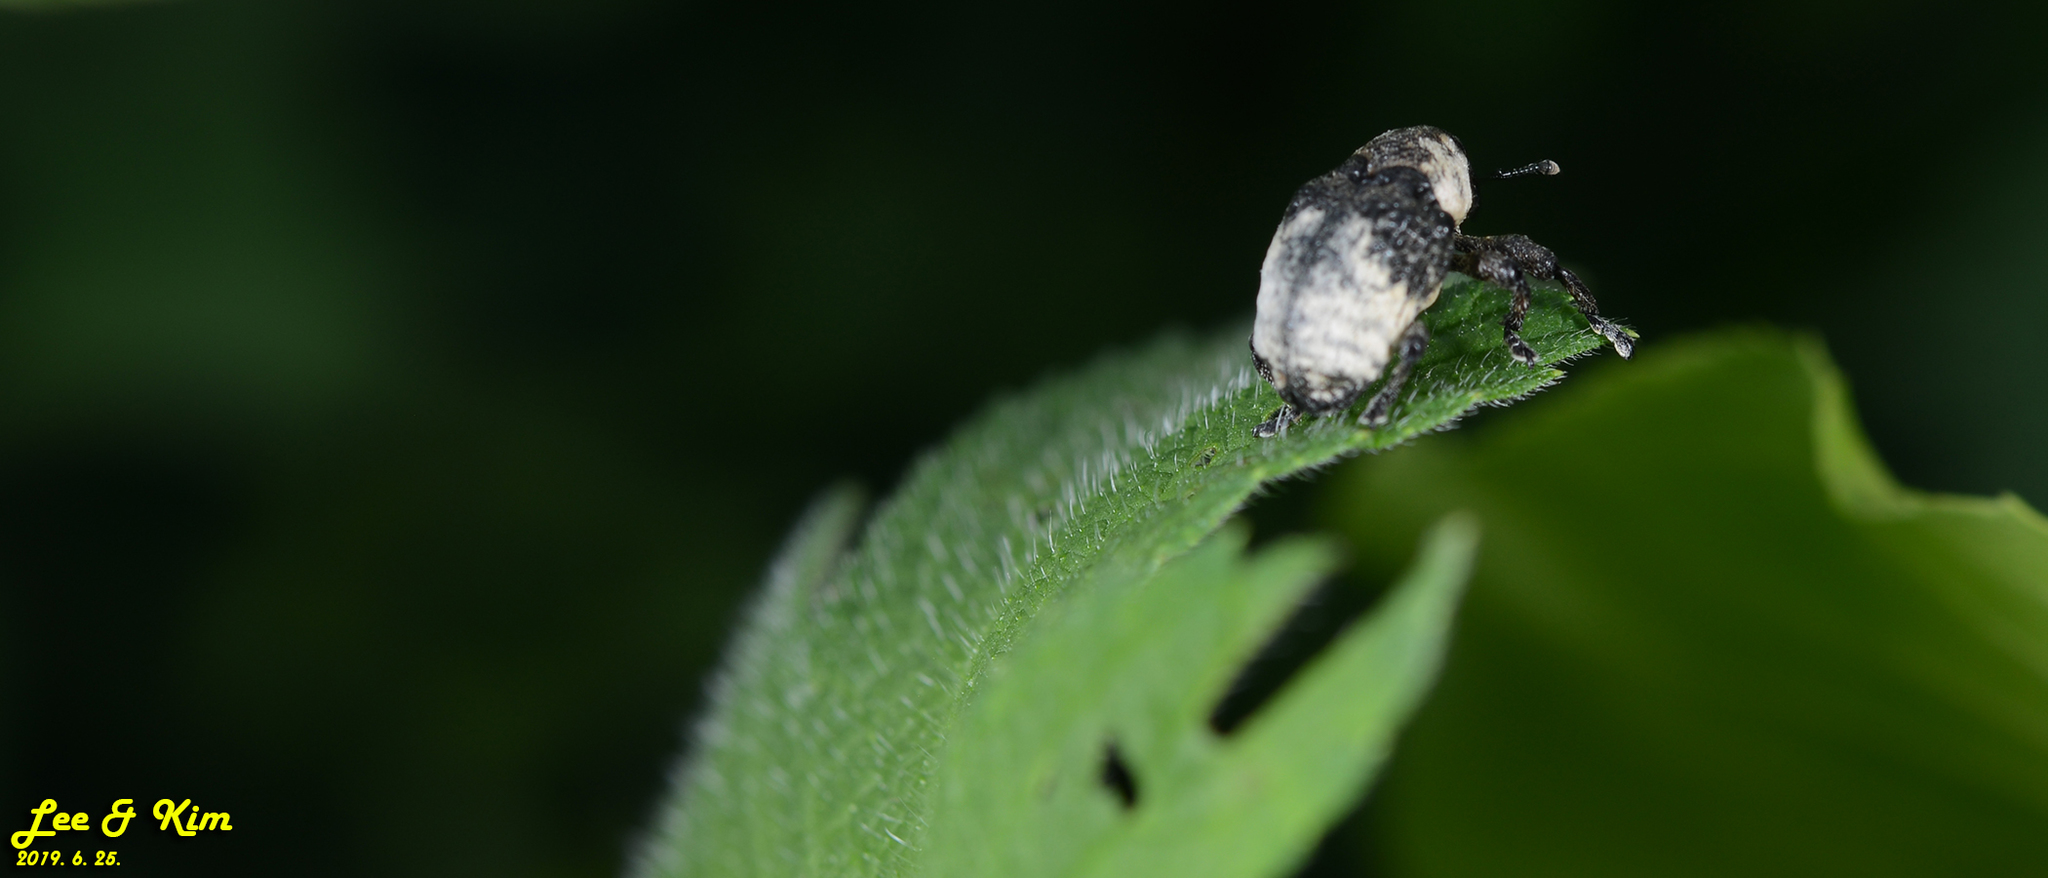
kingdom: Animalia
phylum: Arthropoda
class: Insecta
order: Coleoptera
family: Curculionidae
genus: Alcides
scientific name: Alcides trifidus
